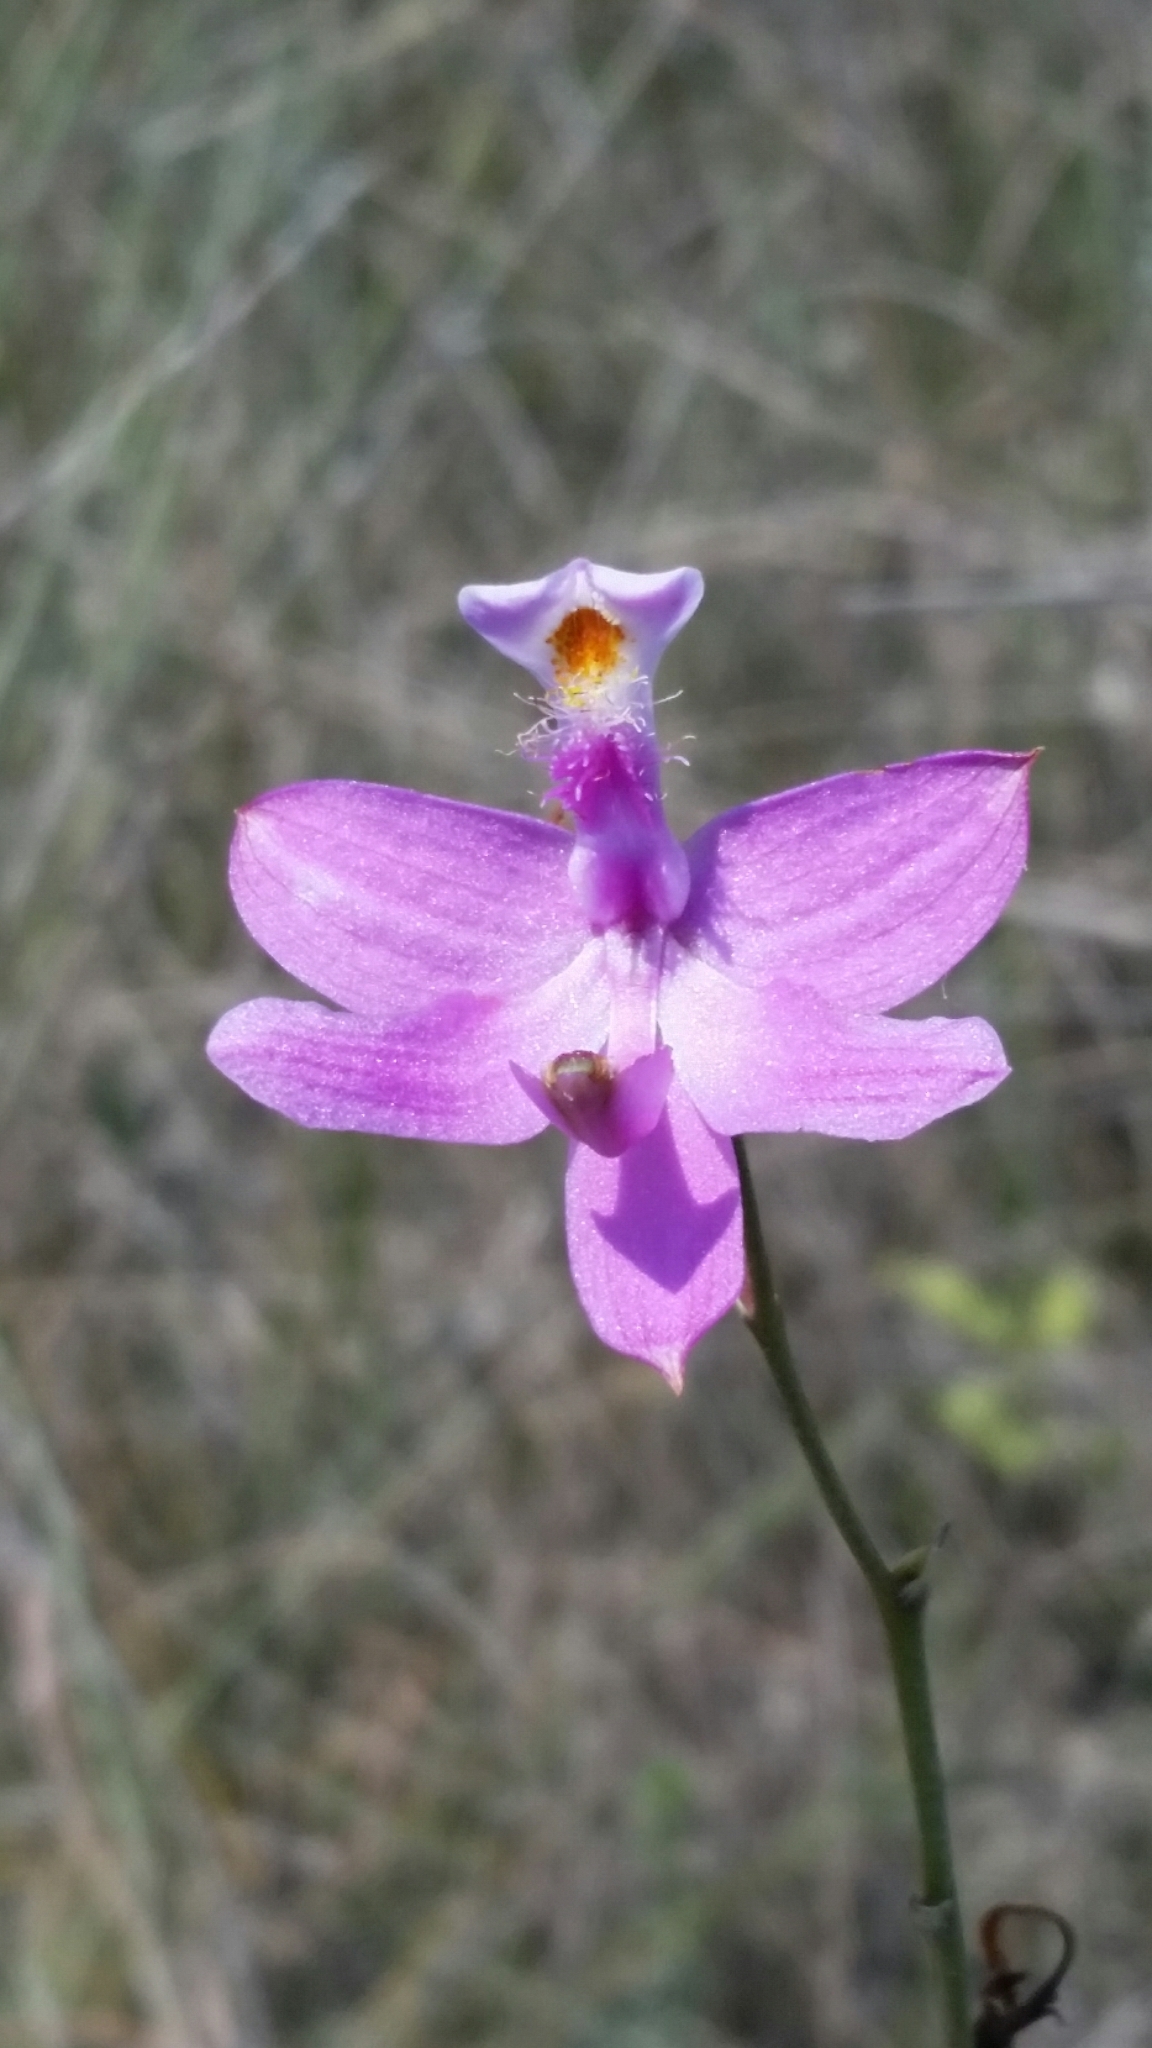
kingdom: Plantae
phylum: Tracheophyta
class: Liliopsida
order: Asparagales
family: Orchidaceae
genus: Calopogon
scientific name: Calopogon tuberosus
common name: Grass-pink
